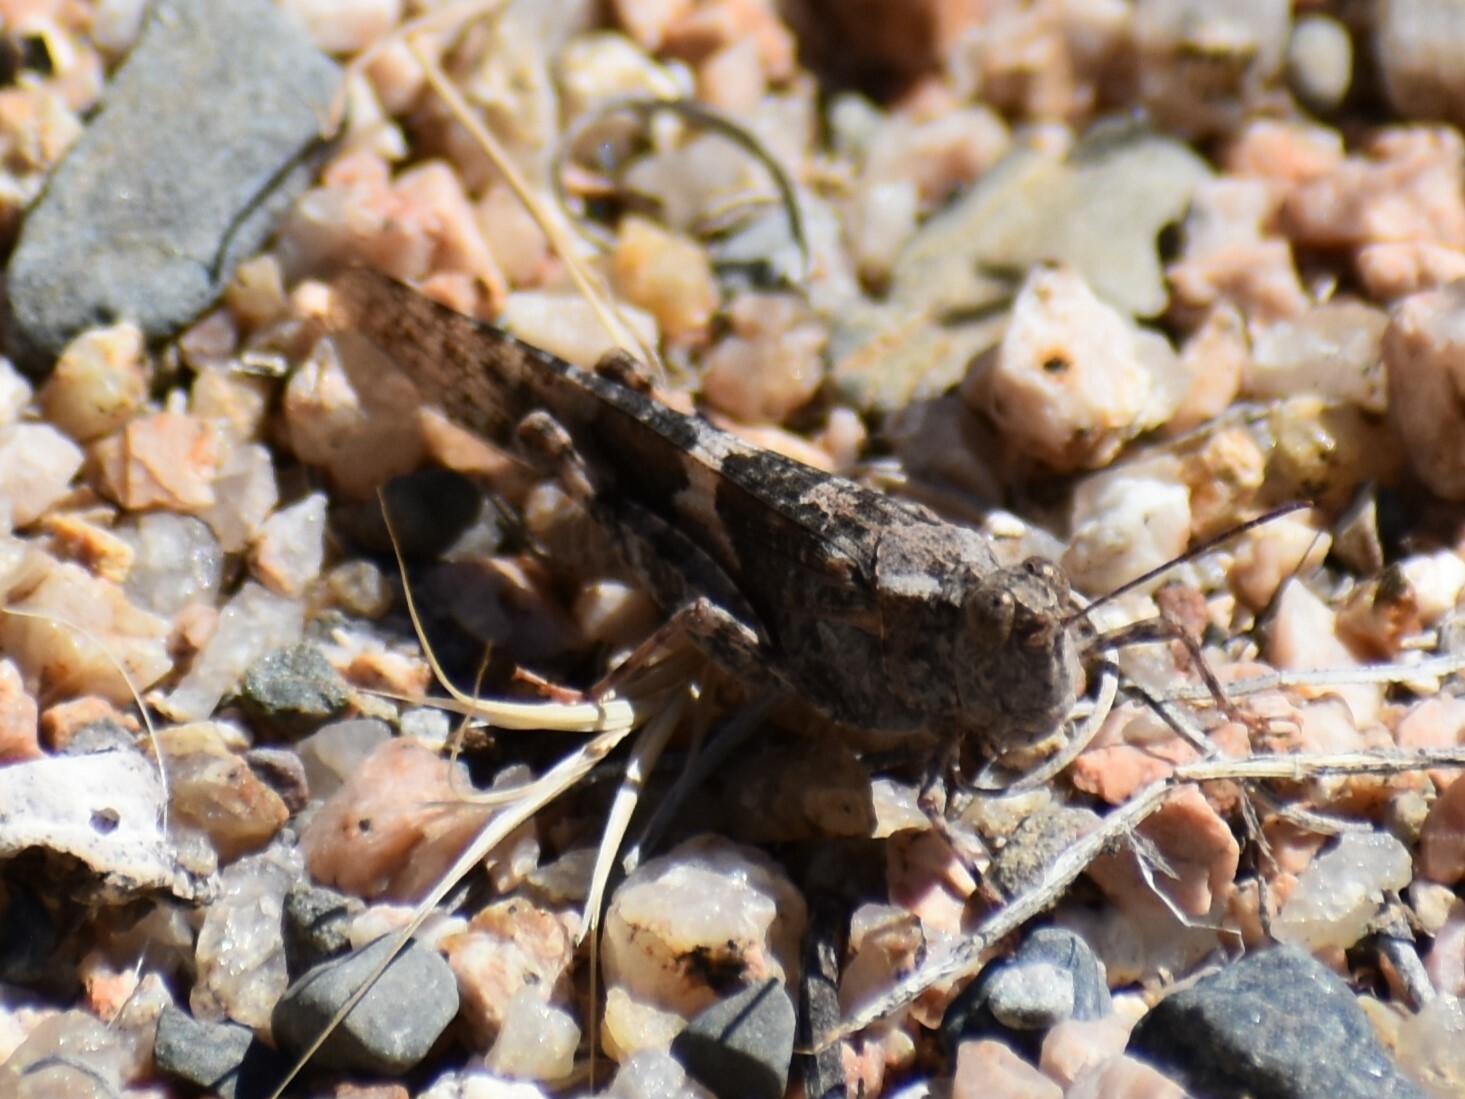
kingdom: Animalia
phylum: Arthropoda
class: Insecta
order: Orthoptera
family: Acrididae
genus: Trimerotropis
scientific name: Trimerotropis pallidipennis
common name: Pallid-winged grasshopper
